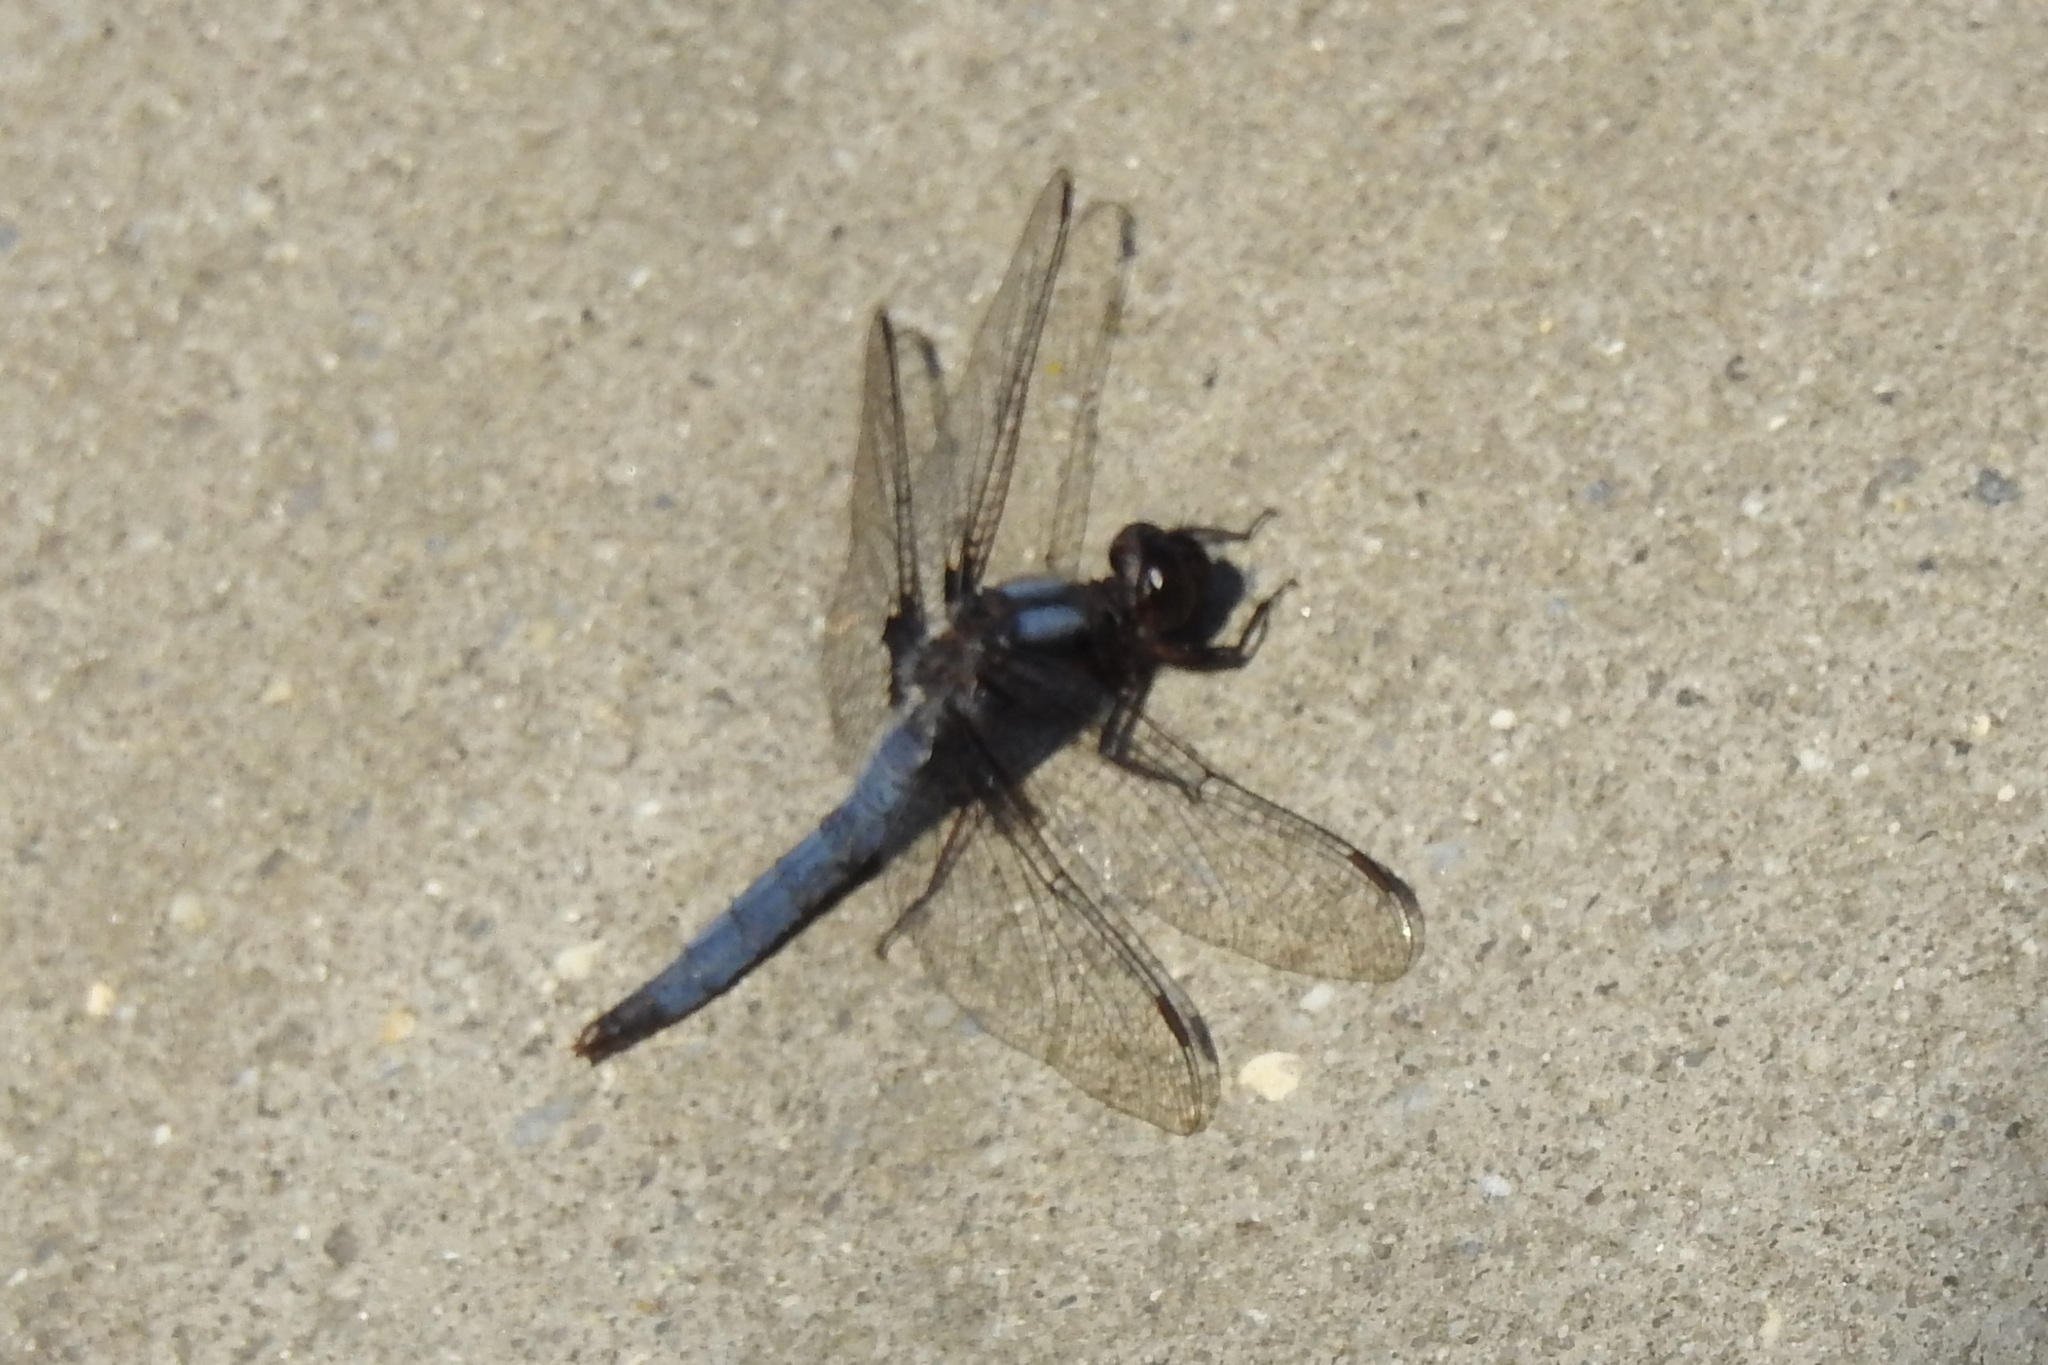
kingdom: Animalia
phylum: Arthropoda
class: Insecta
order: Odonata
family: Libellulidae
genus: Ladona
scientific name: Ladona deplanata
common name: Blue corporal
